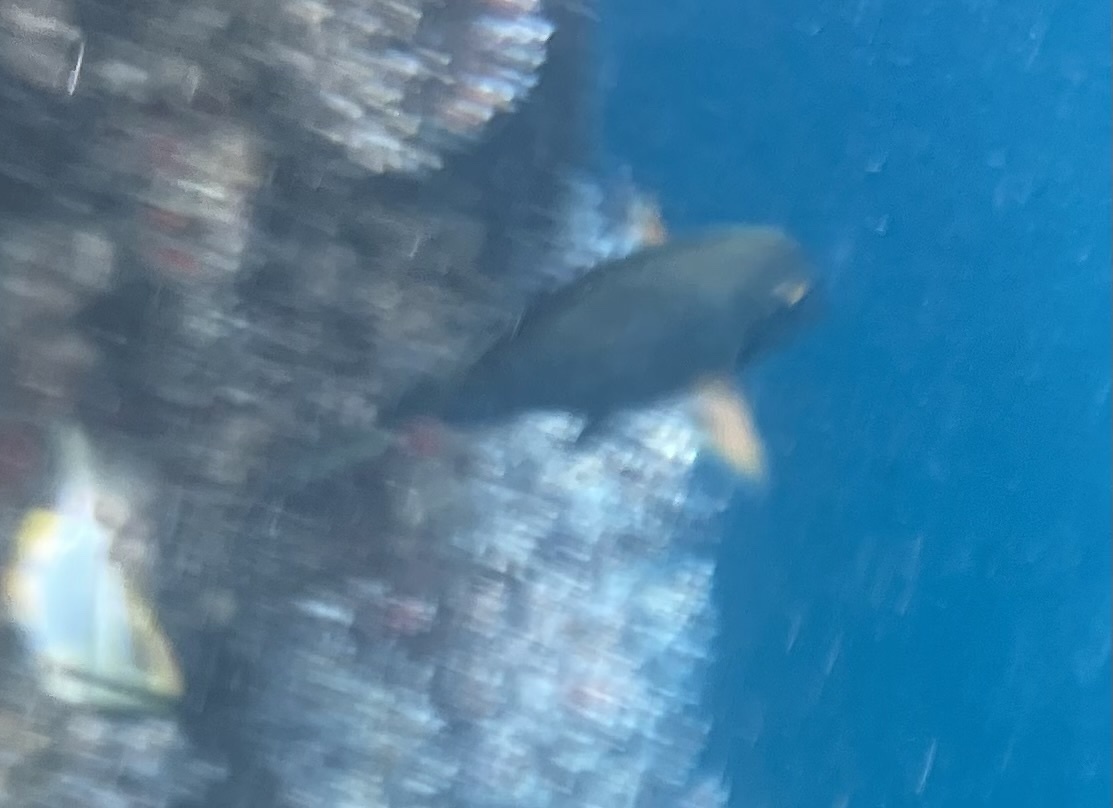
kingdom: Animalia
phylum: Chordata
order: Perciformes
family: Acanthuridae
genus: Acanthurus
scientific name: Acanthurus bahianus
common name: Ocean surgeon
